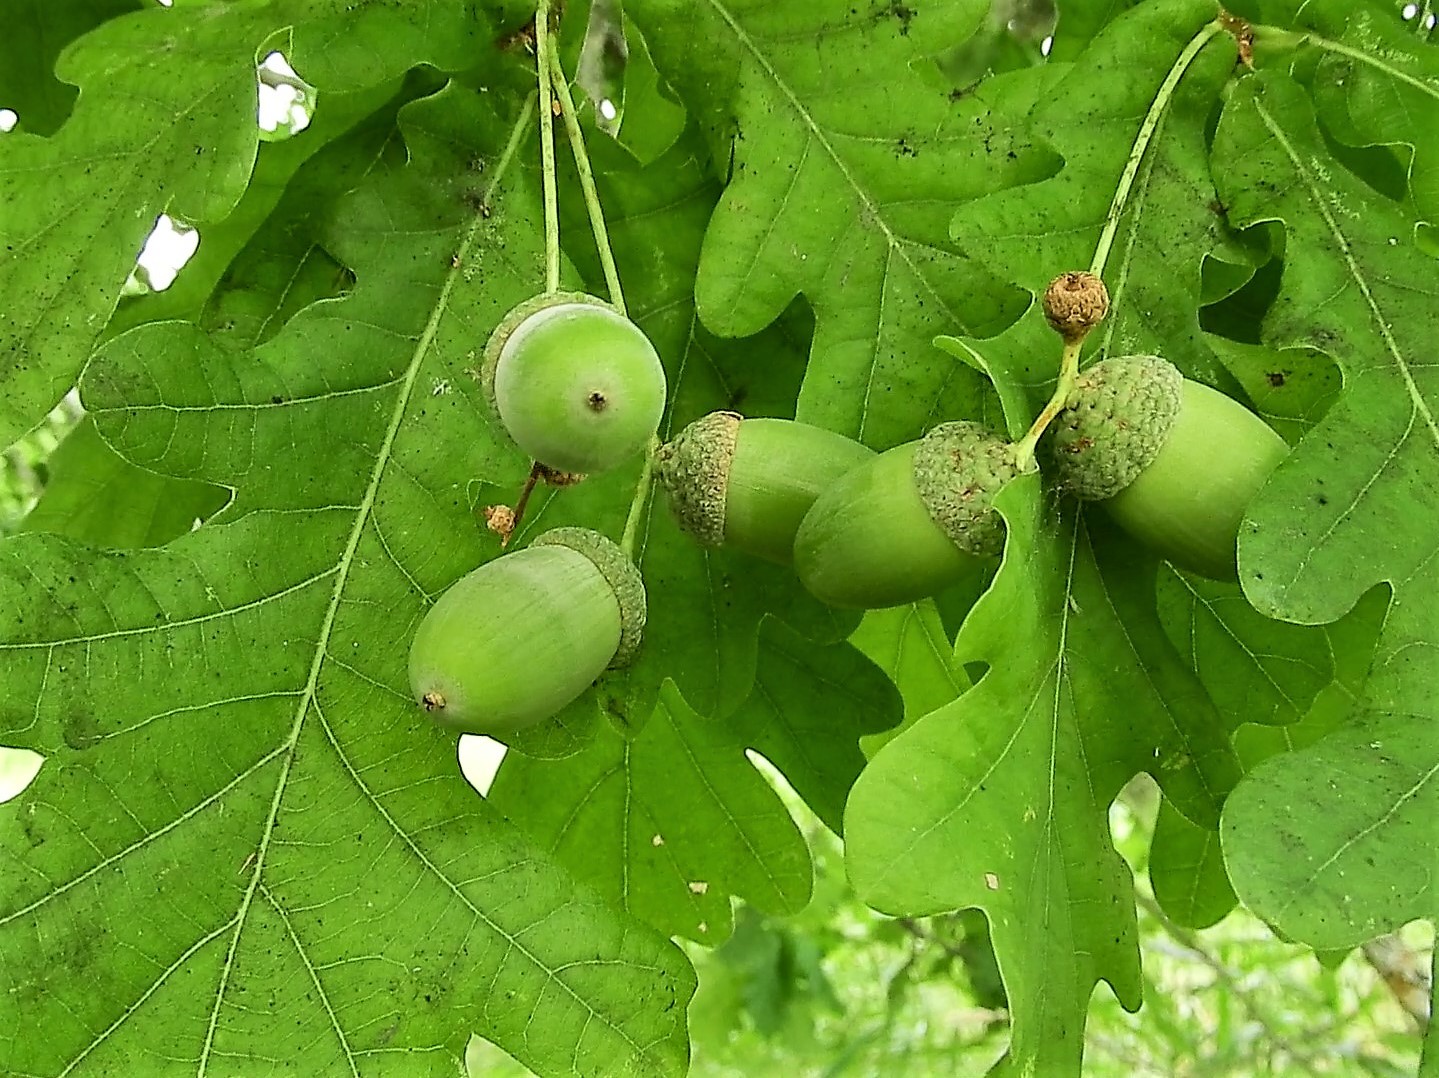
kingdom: Plantae
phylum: Tracheophyta
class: Magnoliopsida
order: Fagales
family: Fagaceae
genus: Quercus
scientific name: Quercus robur
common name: Pedunculate oak
